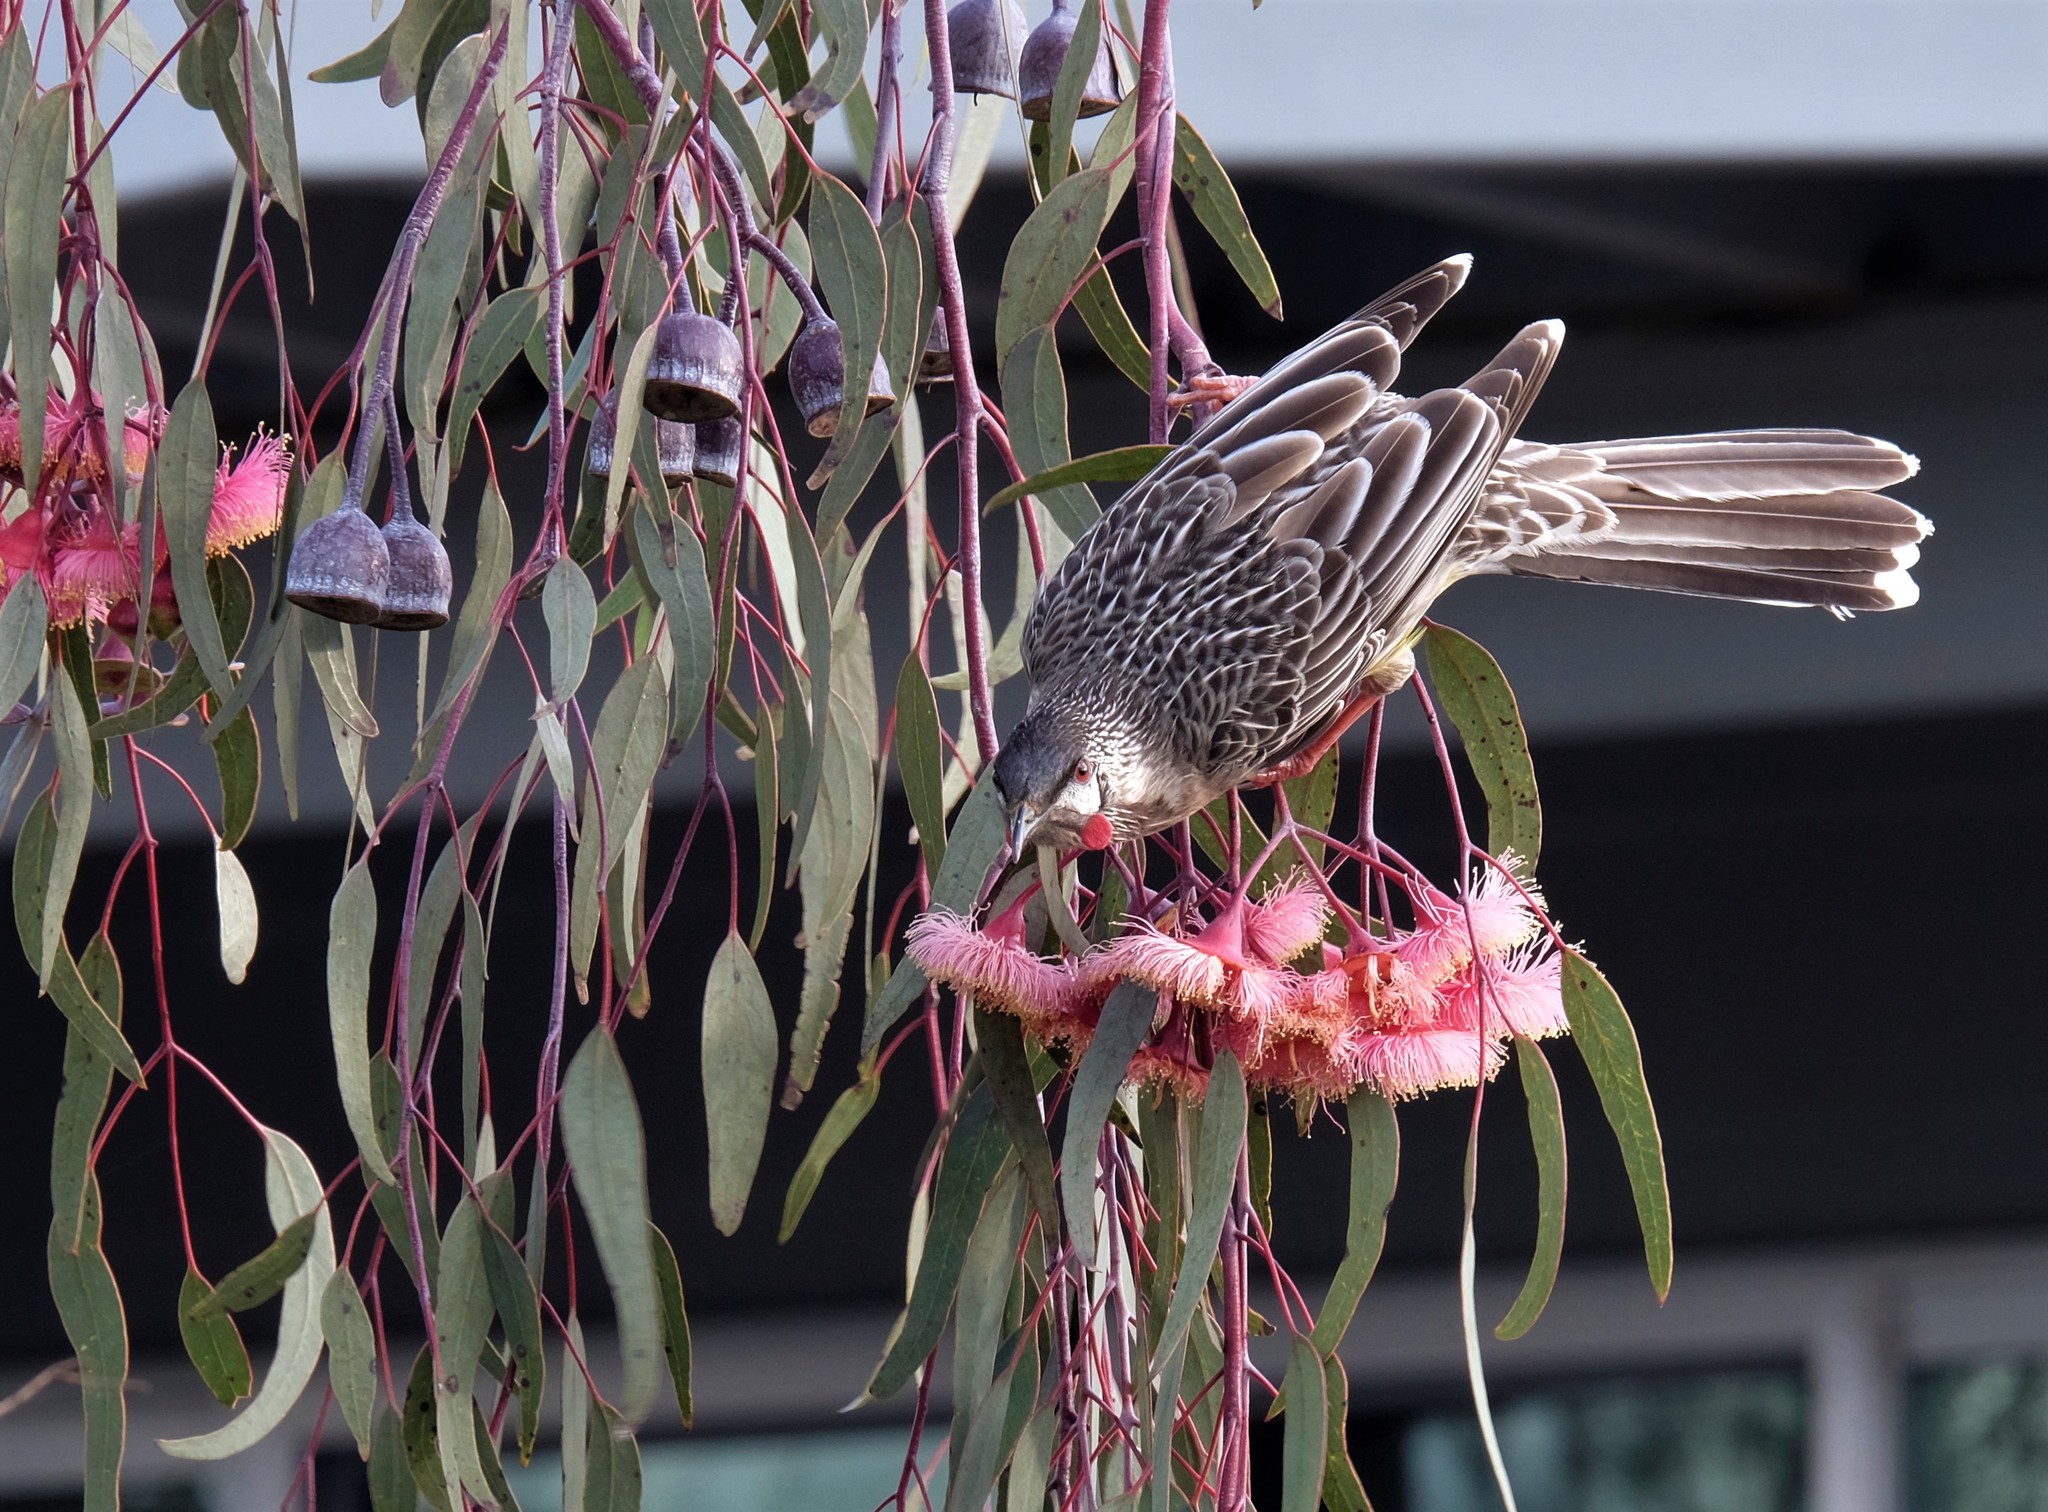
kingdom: Animalia
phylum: Chordata
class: Aves
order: Passeriformes
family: Meliphagidae
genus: Anthochaera
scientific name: Anthochaera carunculata
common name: Red wattlebird
